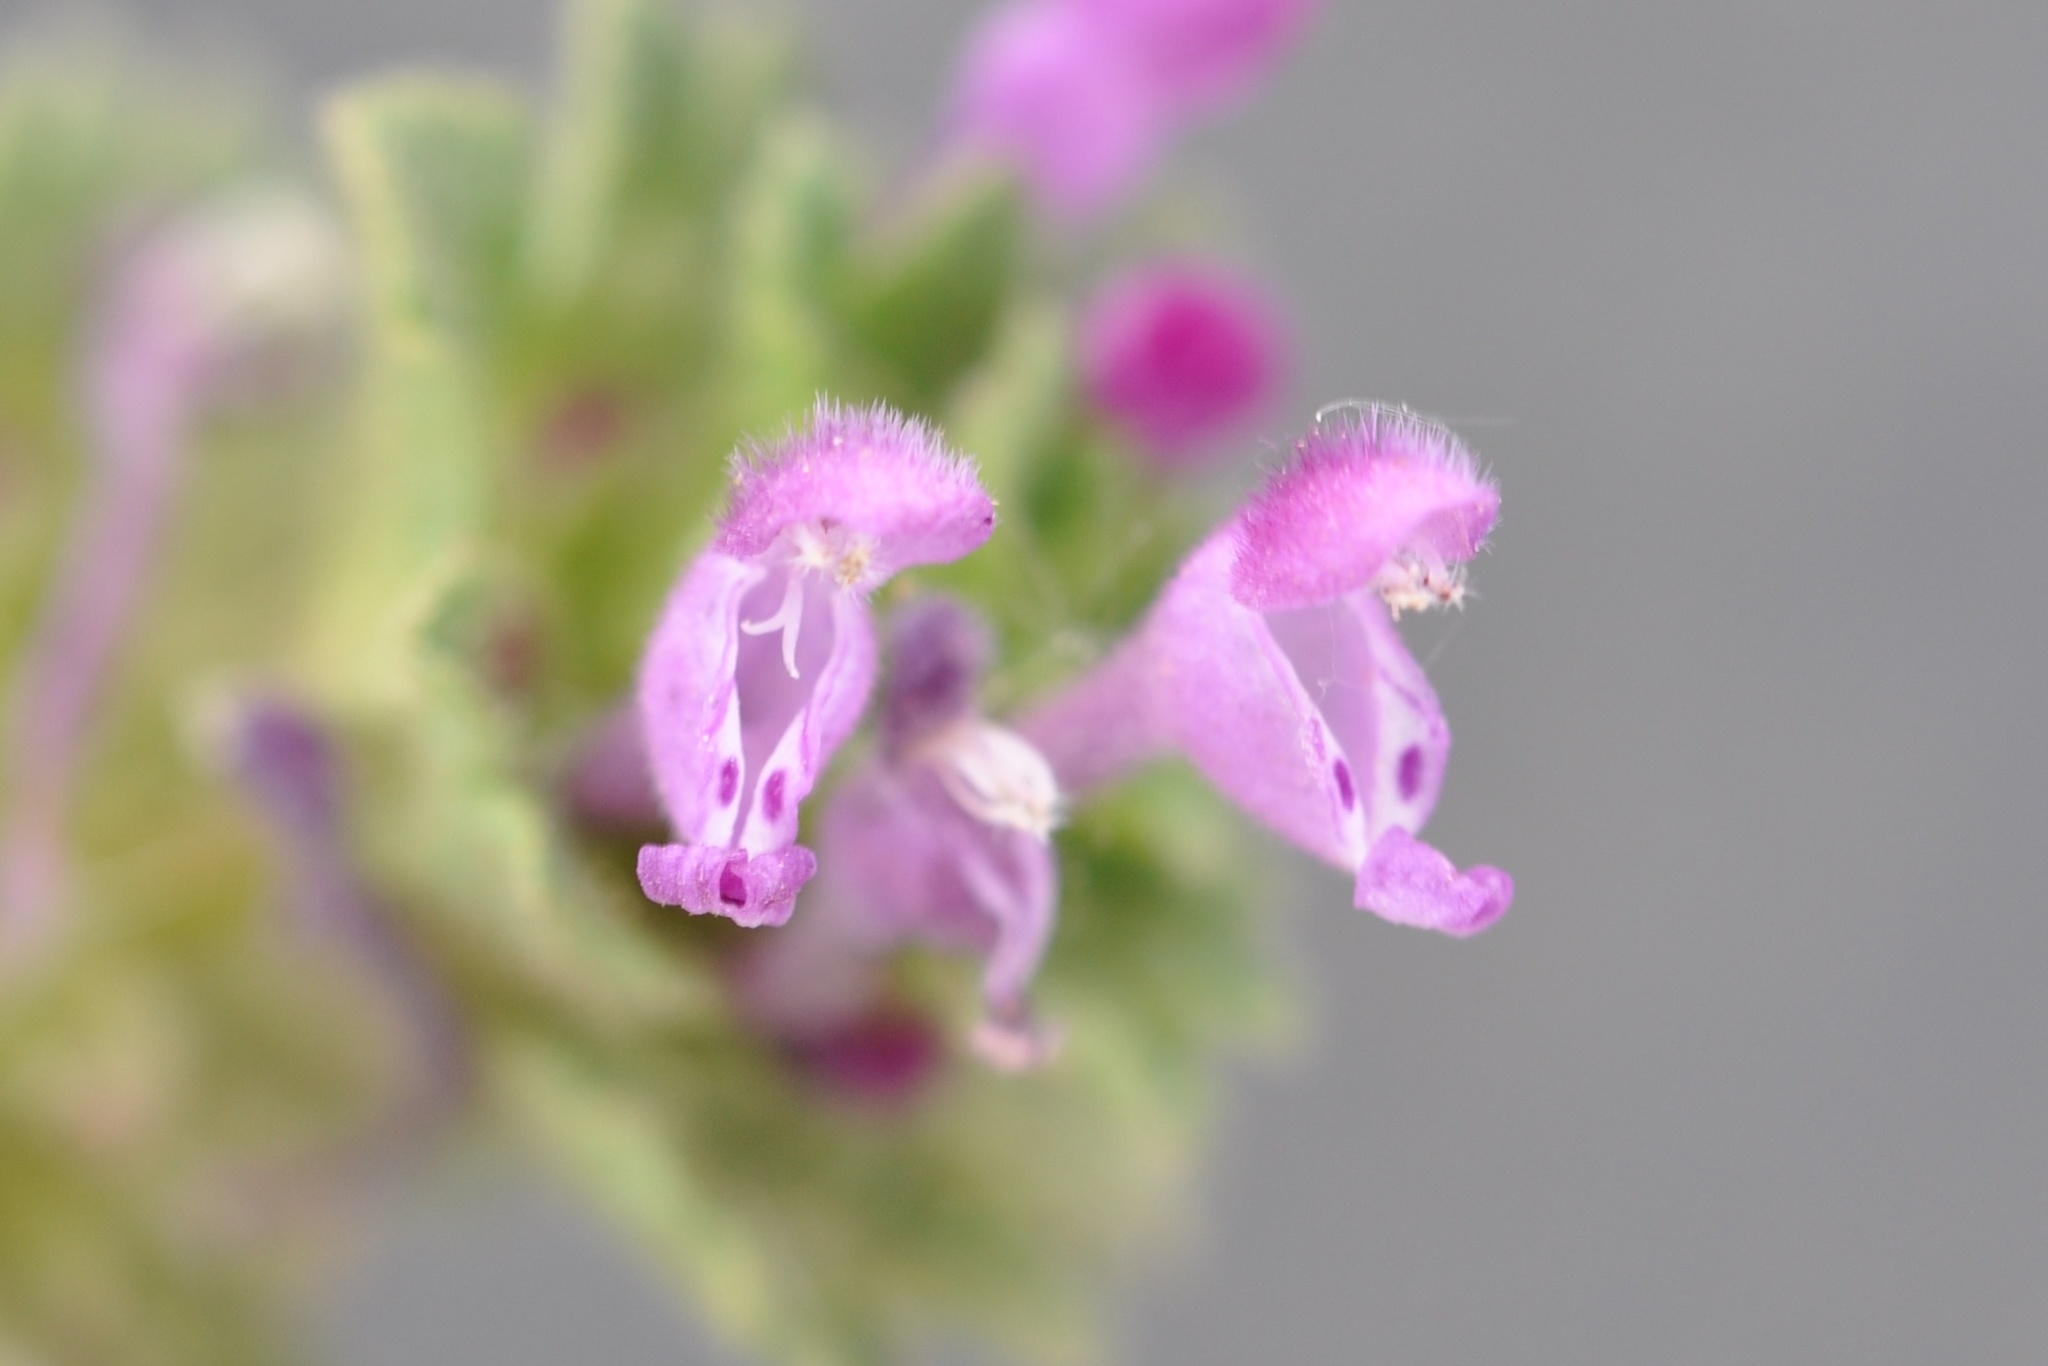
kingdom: Plantae
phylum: Tracheophyta
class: Magnoliopsida
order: Lamiales
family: Lamiaceae
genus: Lamium
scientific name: Lamium amplexicaule
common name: Henbit dead-nettle
